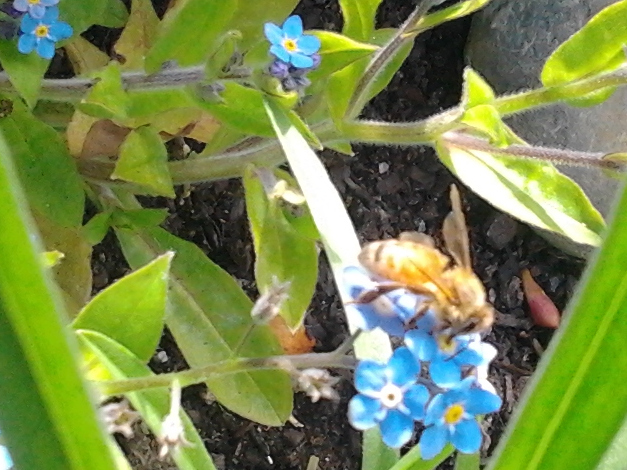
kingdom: Animalia
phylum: Arthropoda
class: Insecta
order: Hymenoptera
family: Apidae
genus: Apis
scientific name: Apis mellifera
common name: Honey bee
